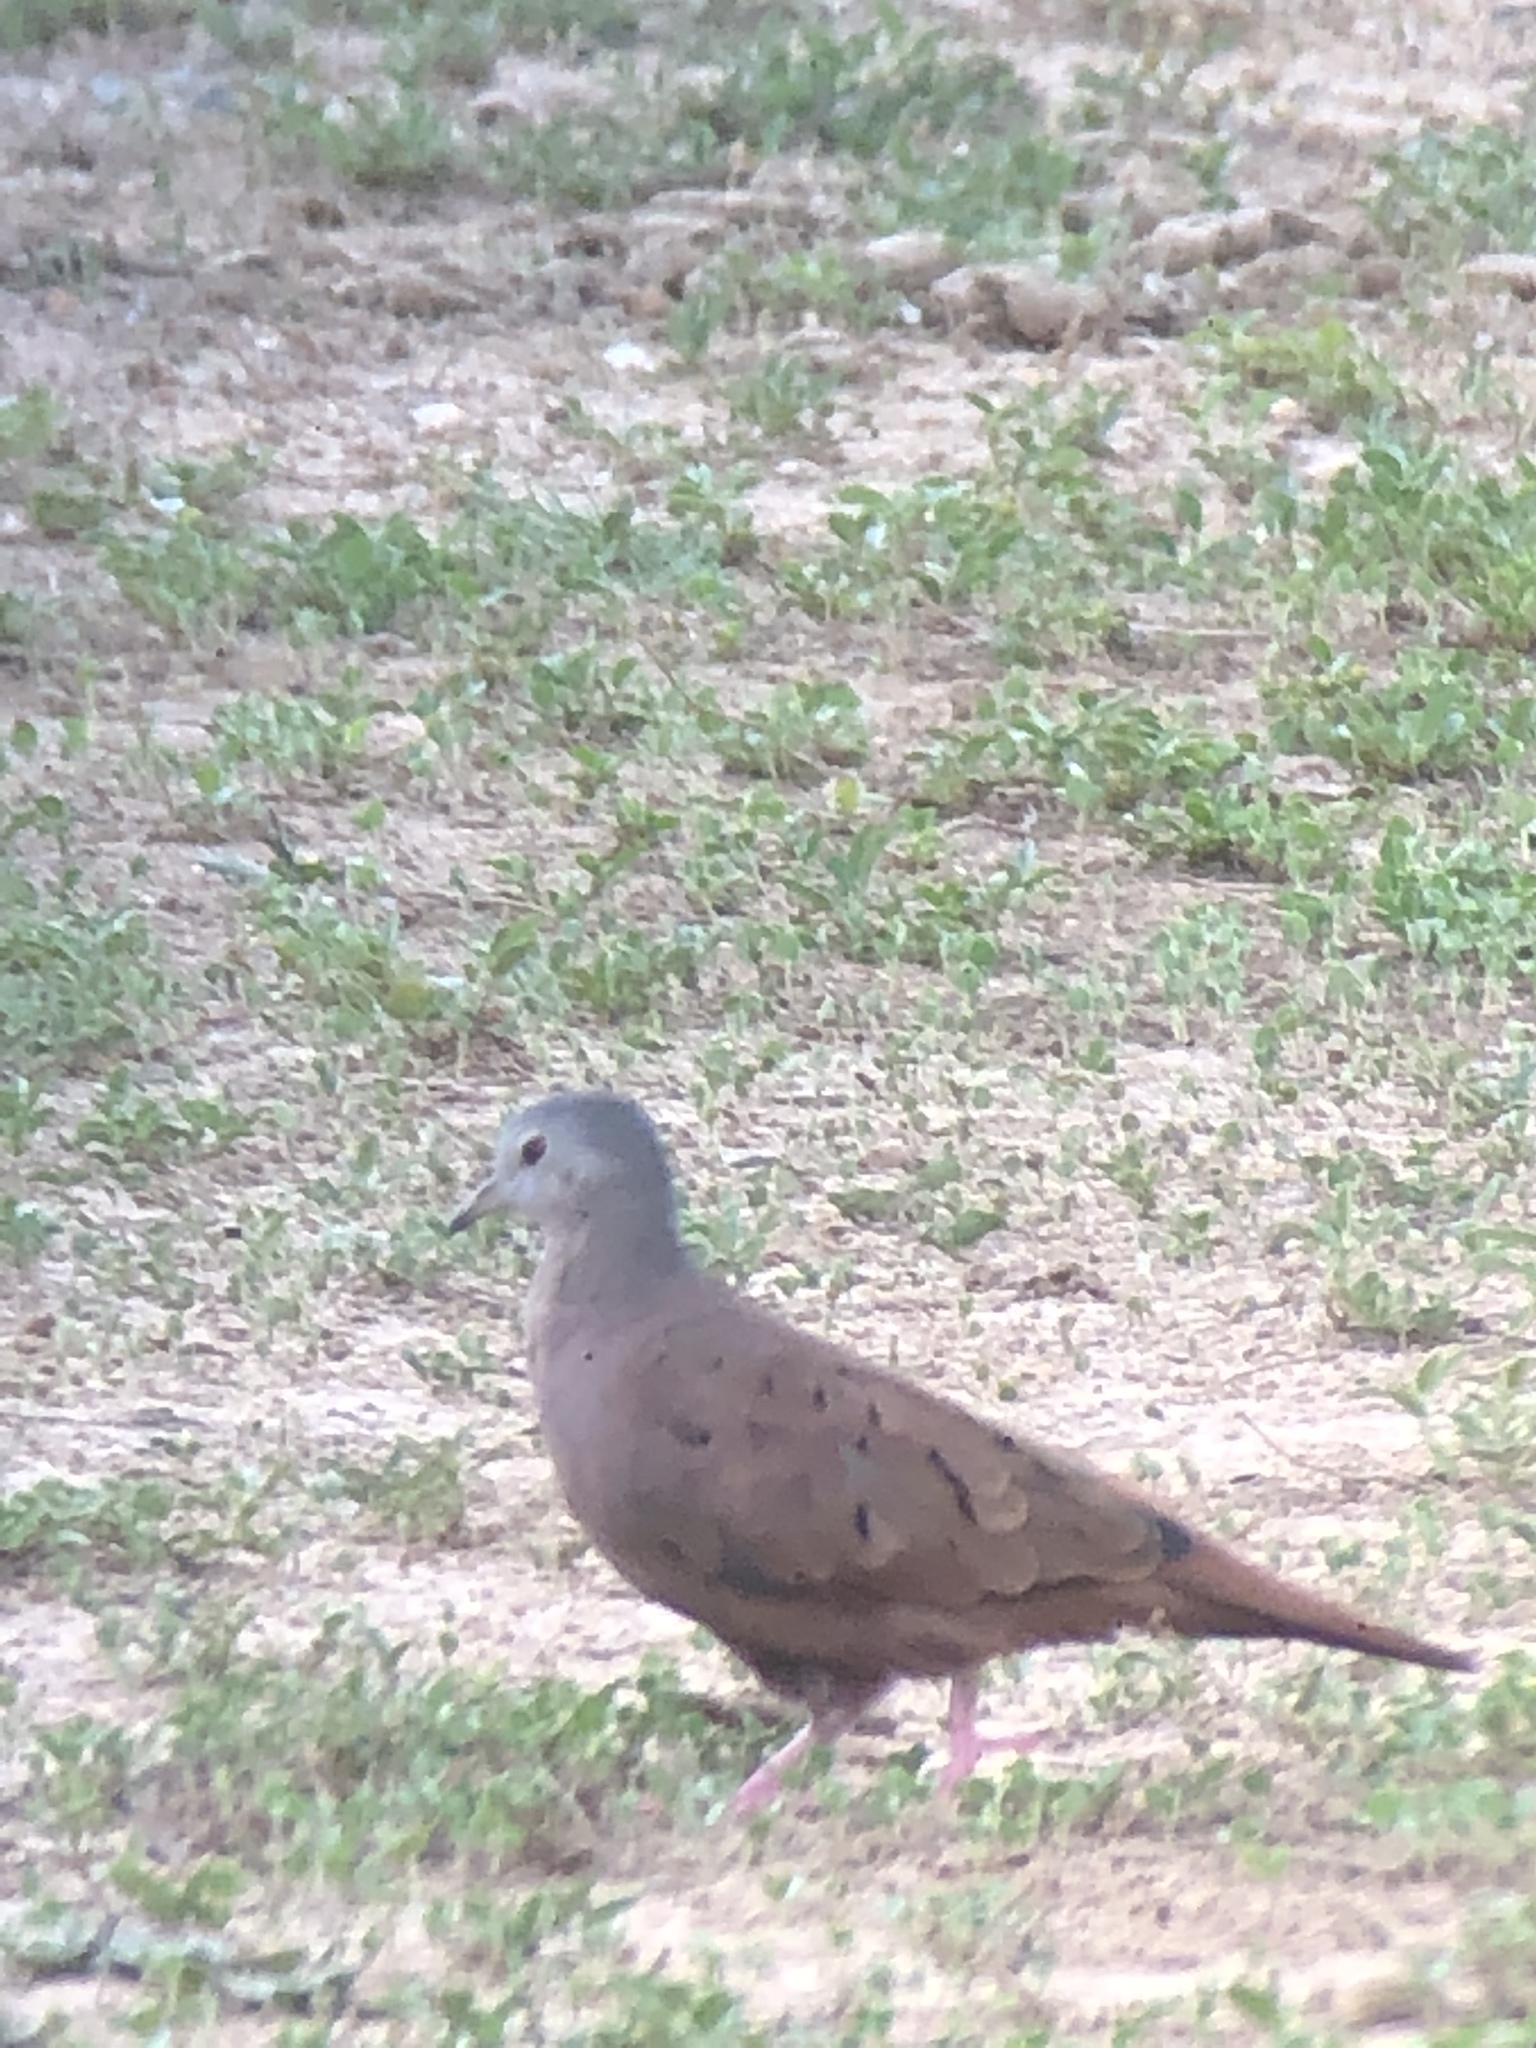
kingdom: Animalia
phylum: Chordata
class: Aves
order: Columbiformes
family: Columbidae
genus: Columbina
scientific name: Columbina talpacoti
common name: Ruddy ground dove
